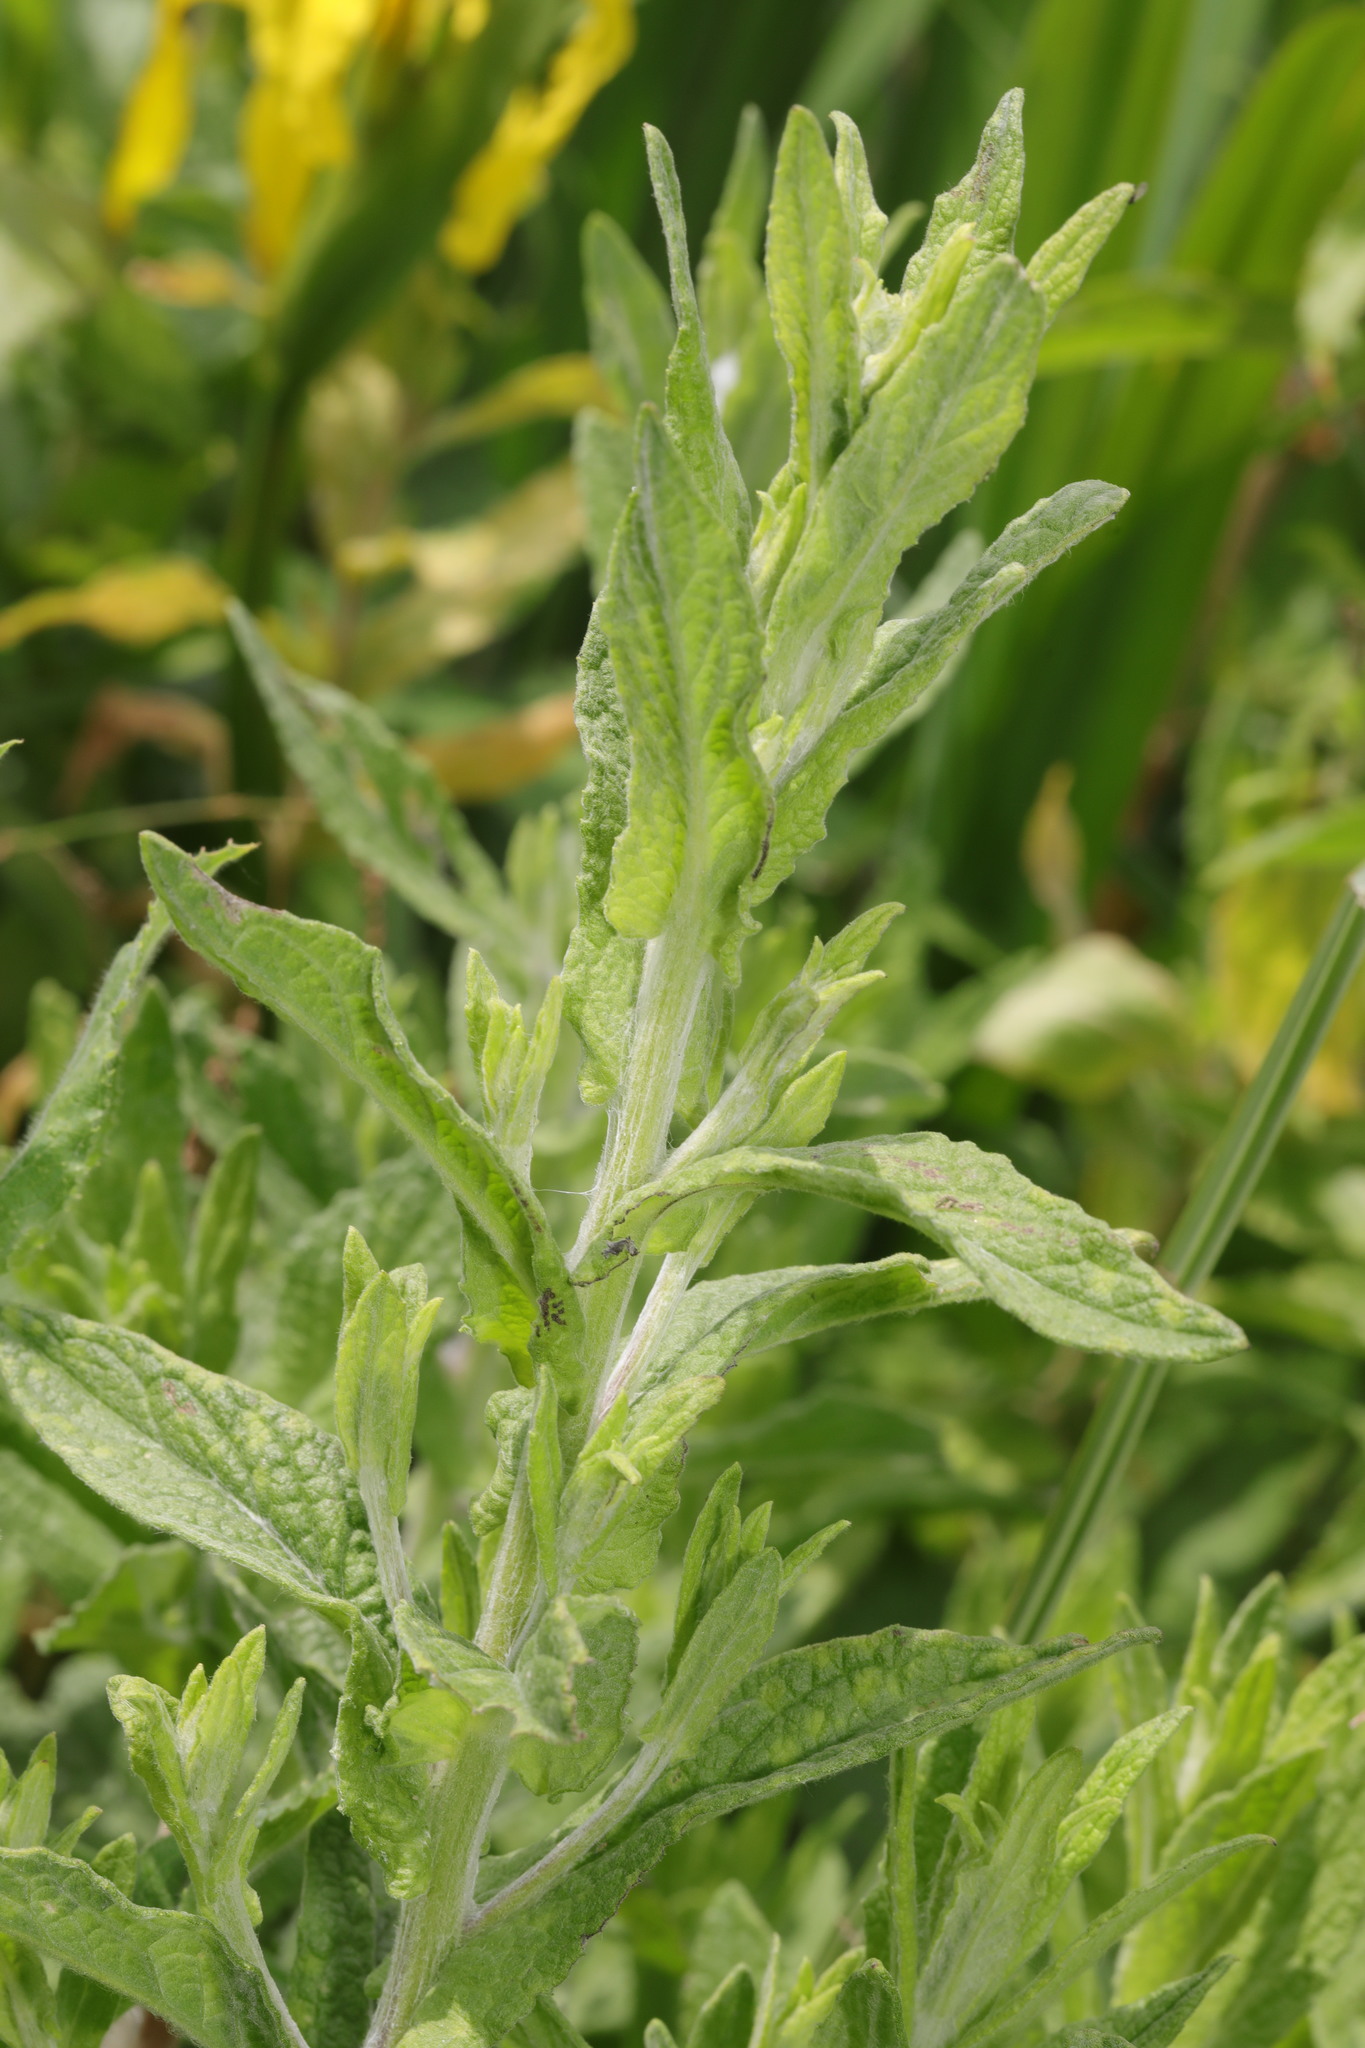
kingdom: Plantae
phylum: Tracheophyta
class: Magnoliopsida
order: Asterales
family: Asteraceae
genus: Pulicaria
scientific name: Pulicaria dysenterica
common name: Common fleabane
